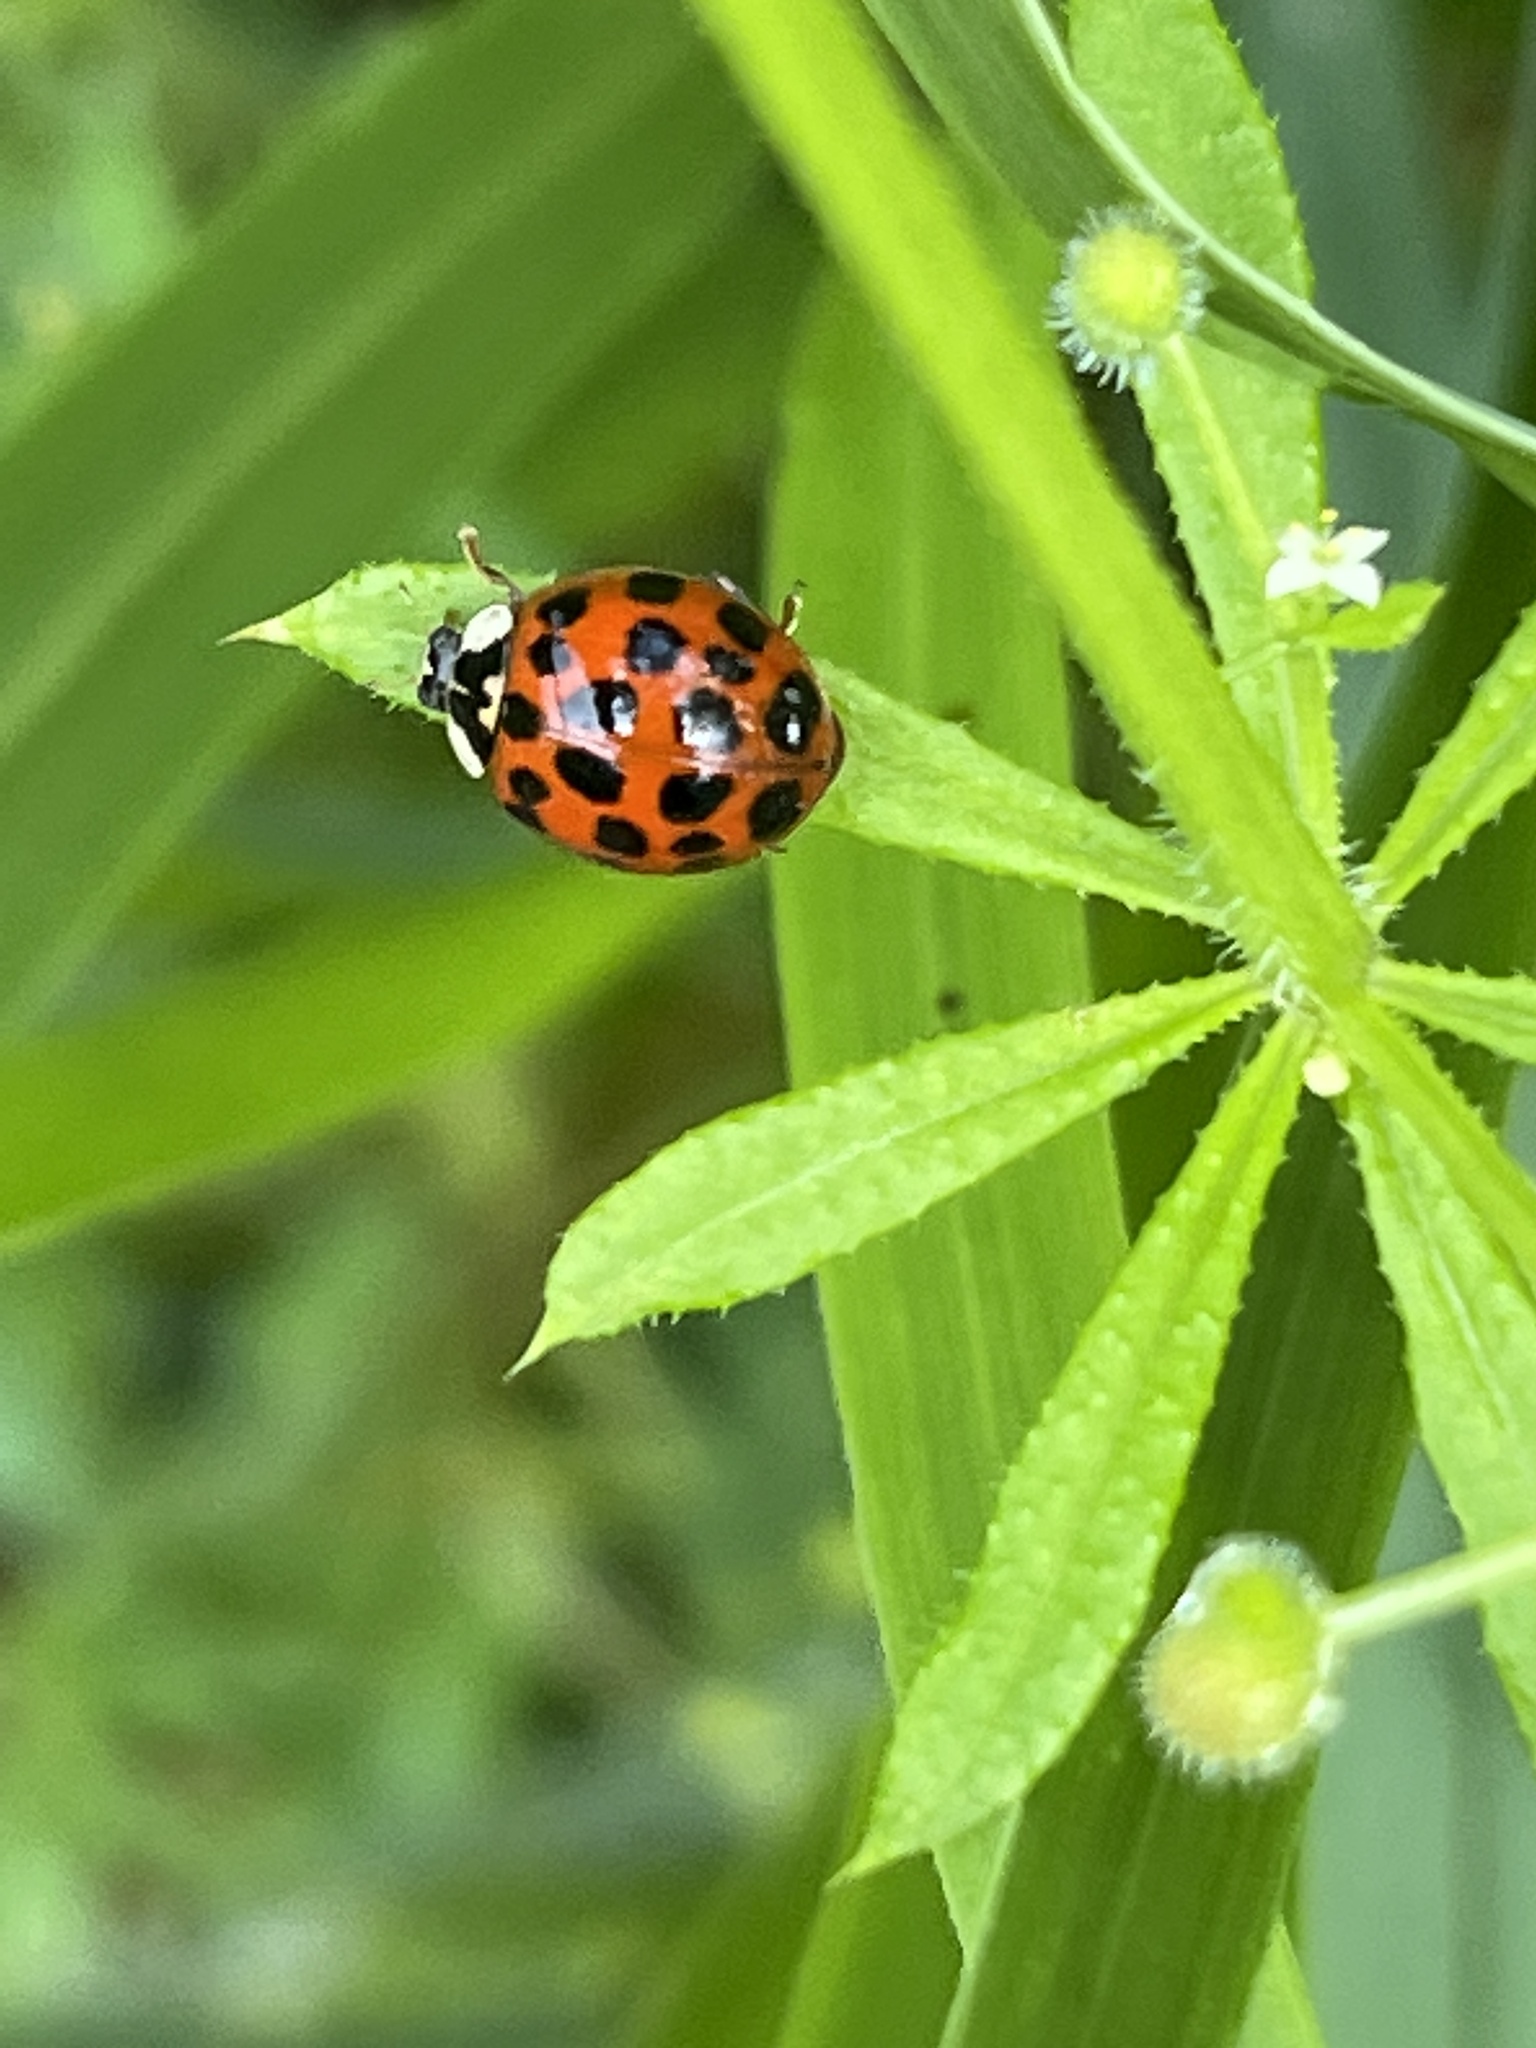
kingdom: Animalia
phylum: Arthropoda
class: Insecta
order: Coleoptera
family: Coccinellidae
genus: Harmonia
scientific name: Harmonia axyridis
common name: Harlequin ladybird
